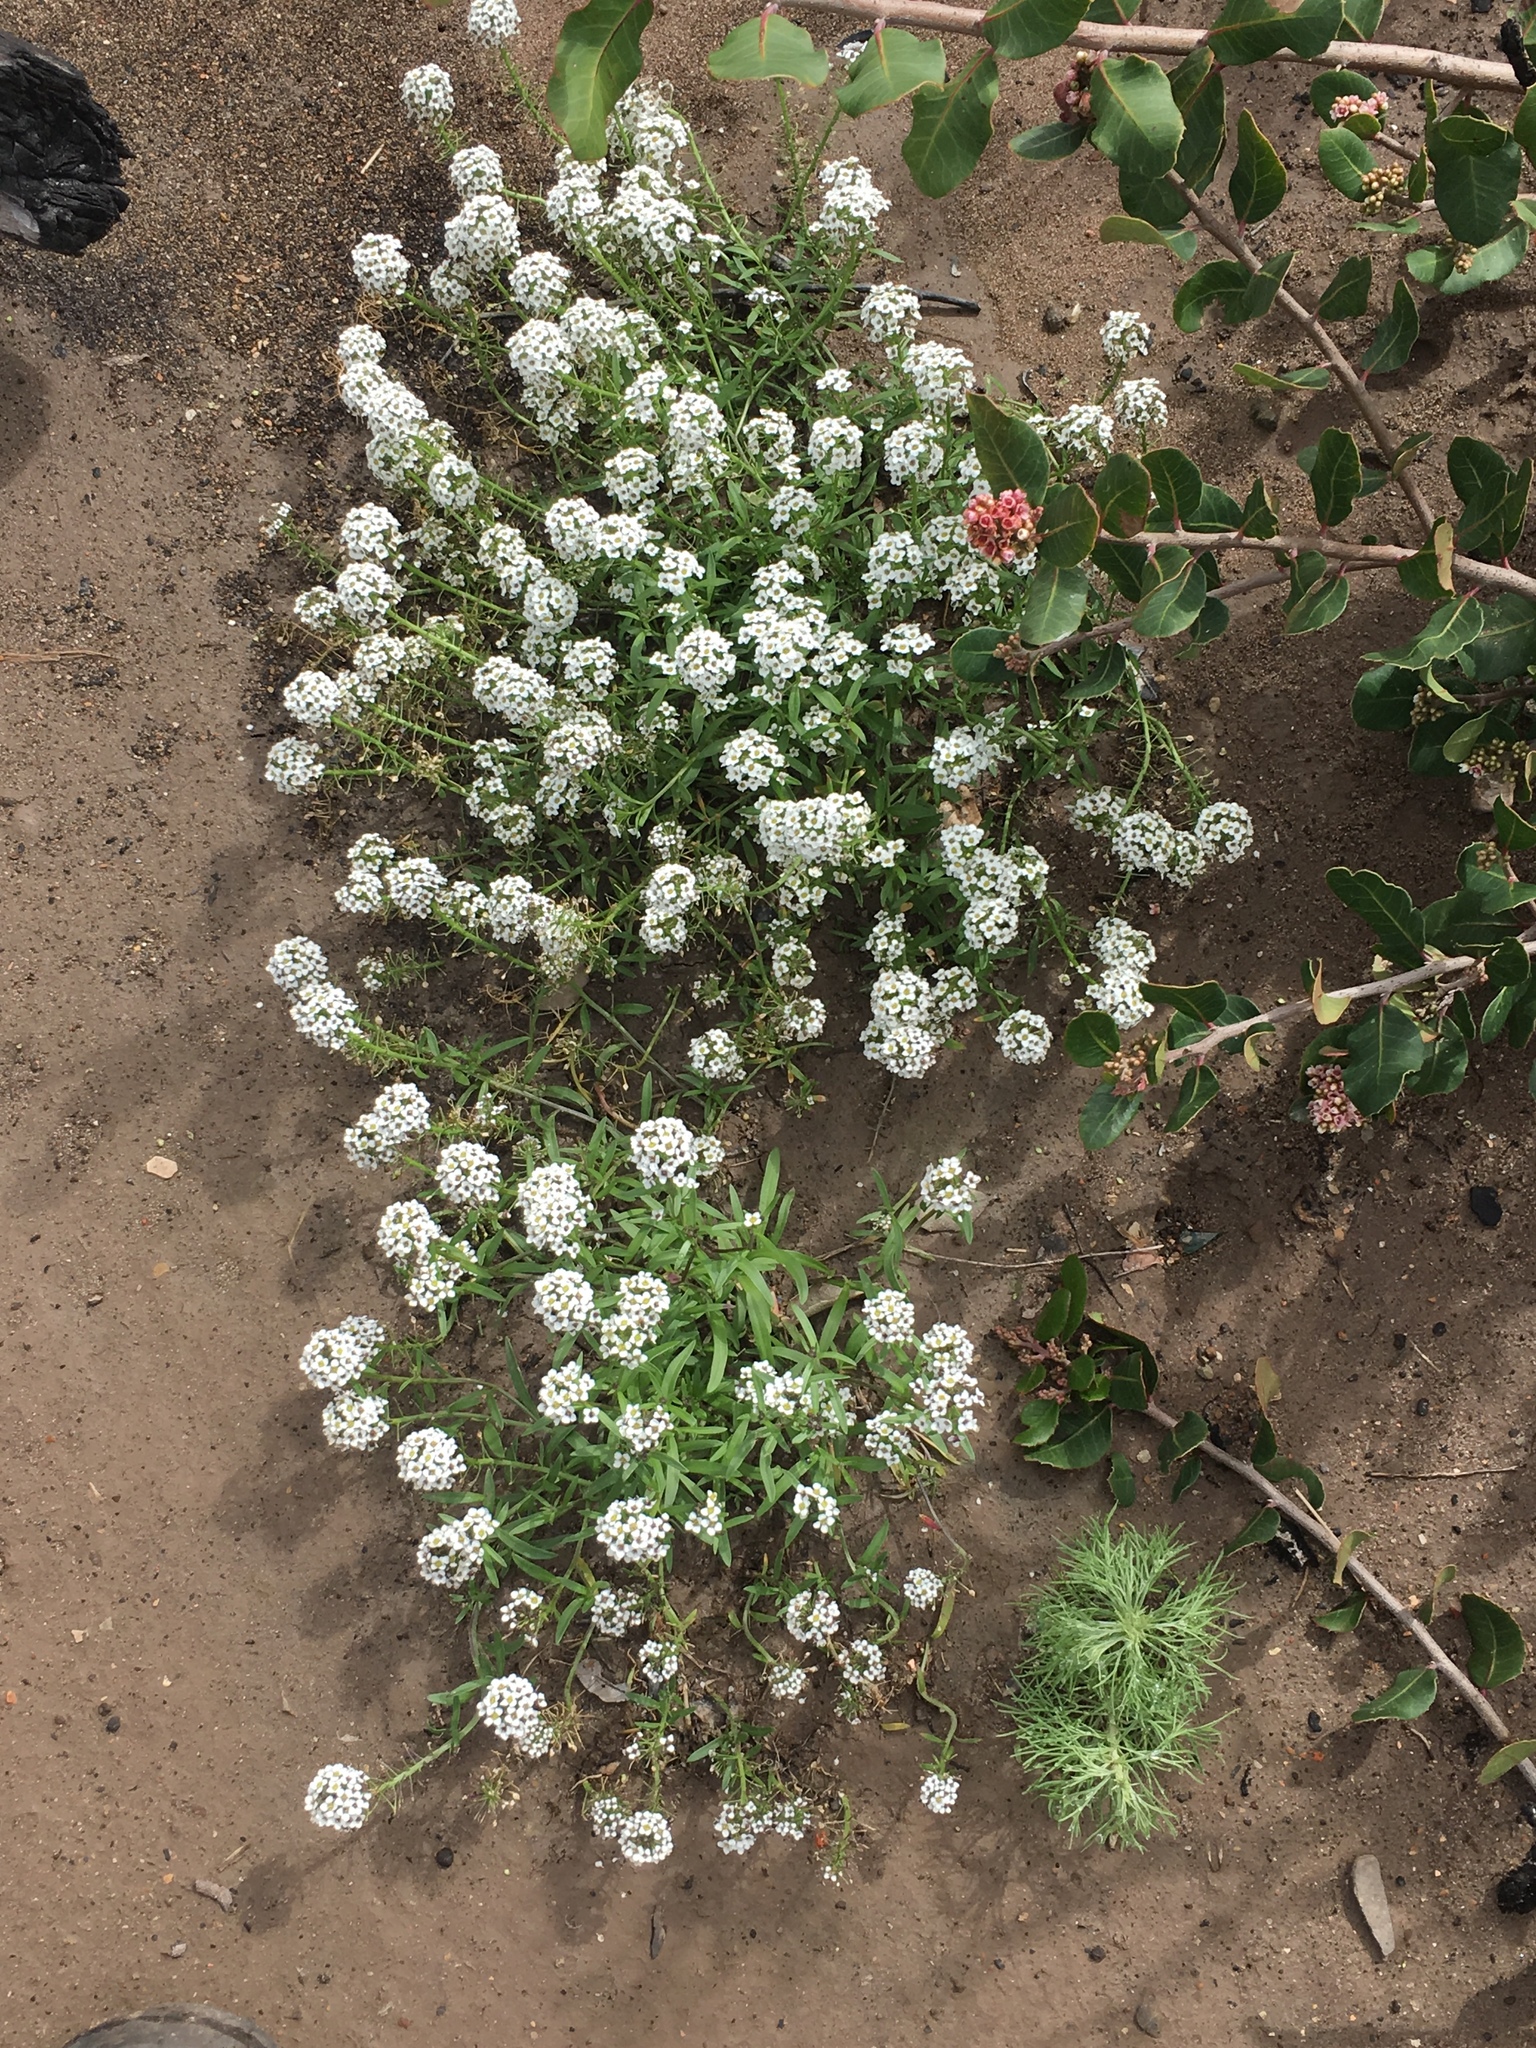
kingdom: Plantae
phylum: Tracheophyta
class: Magnoliopsida
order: Brassicales
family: Brassicaceae
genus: Lobularia
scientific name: Lobularia maritima
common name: Sweet alison
